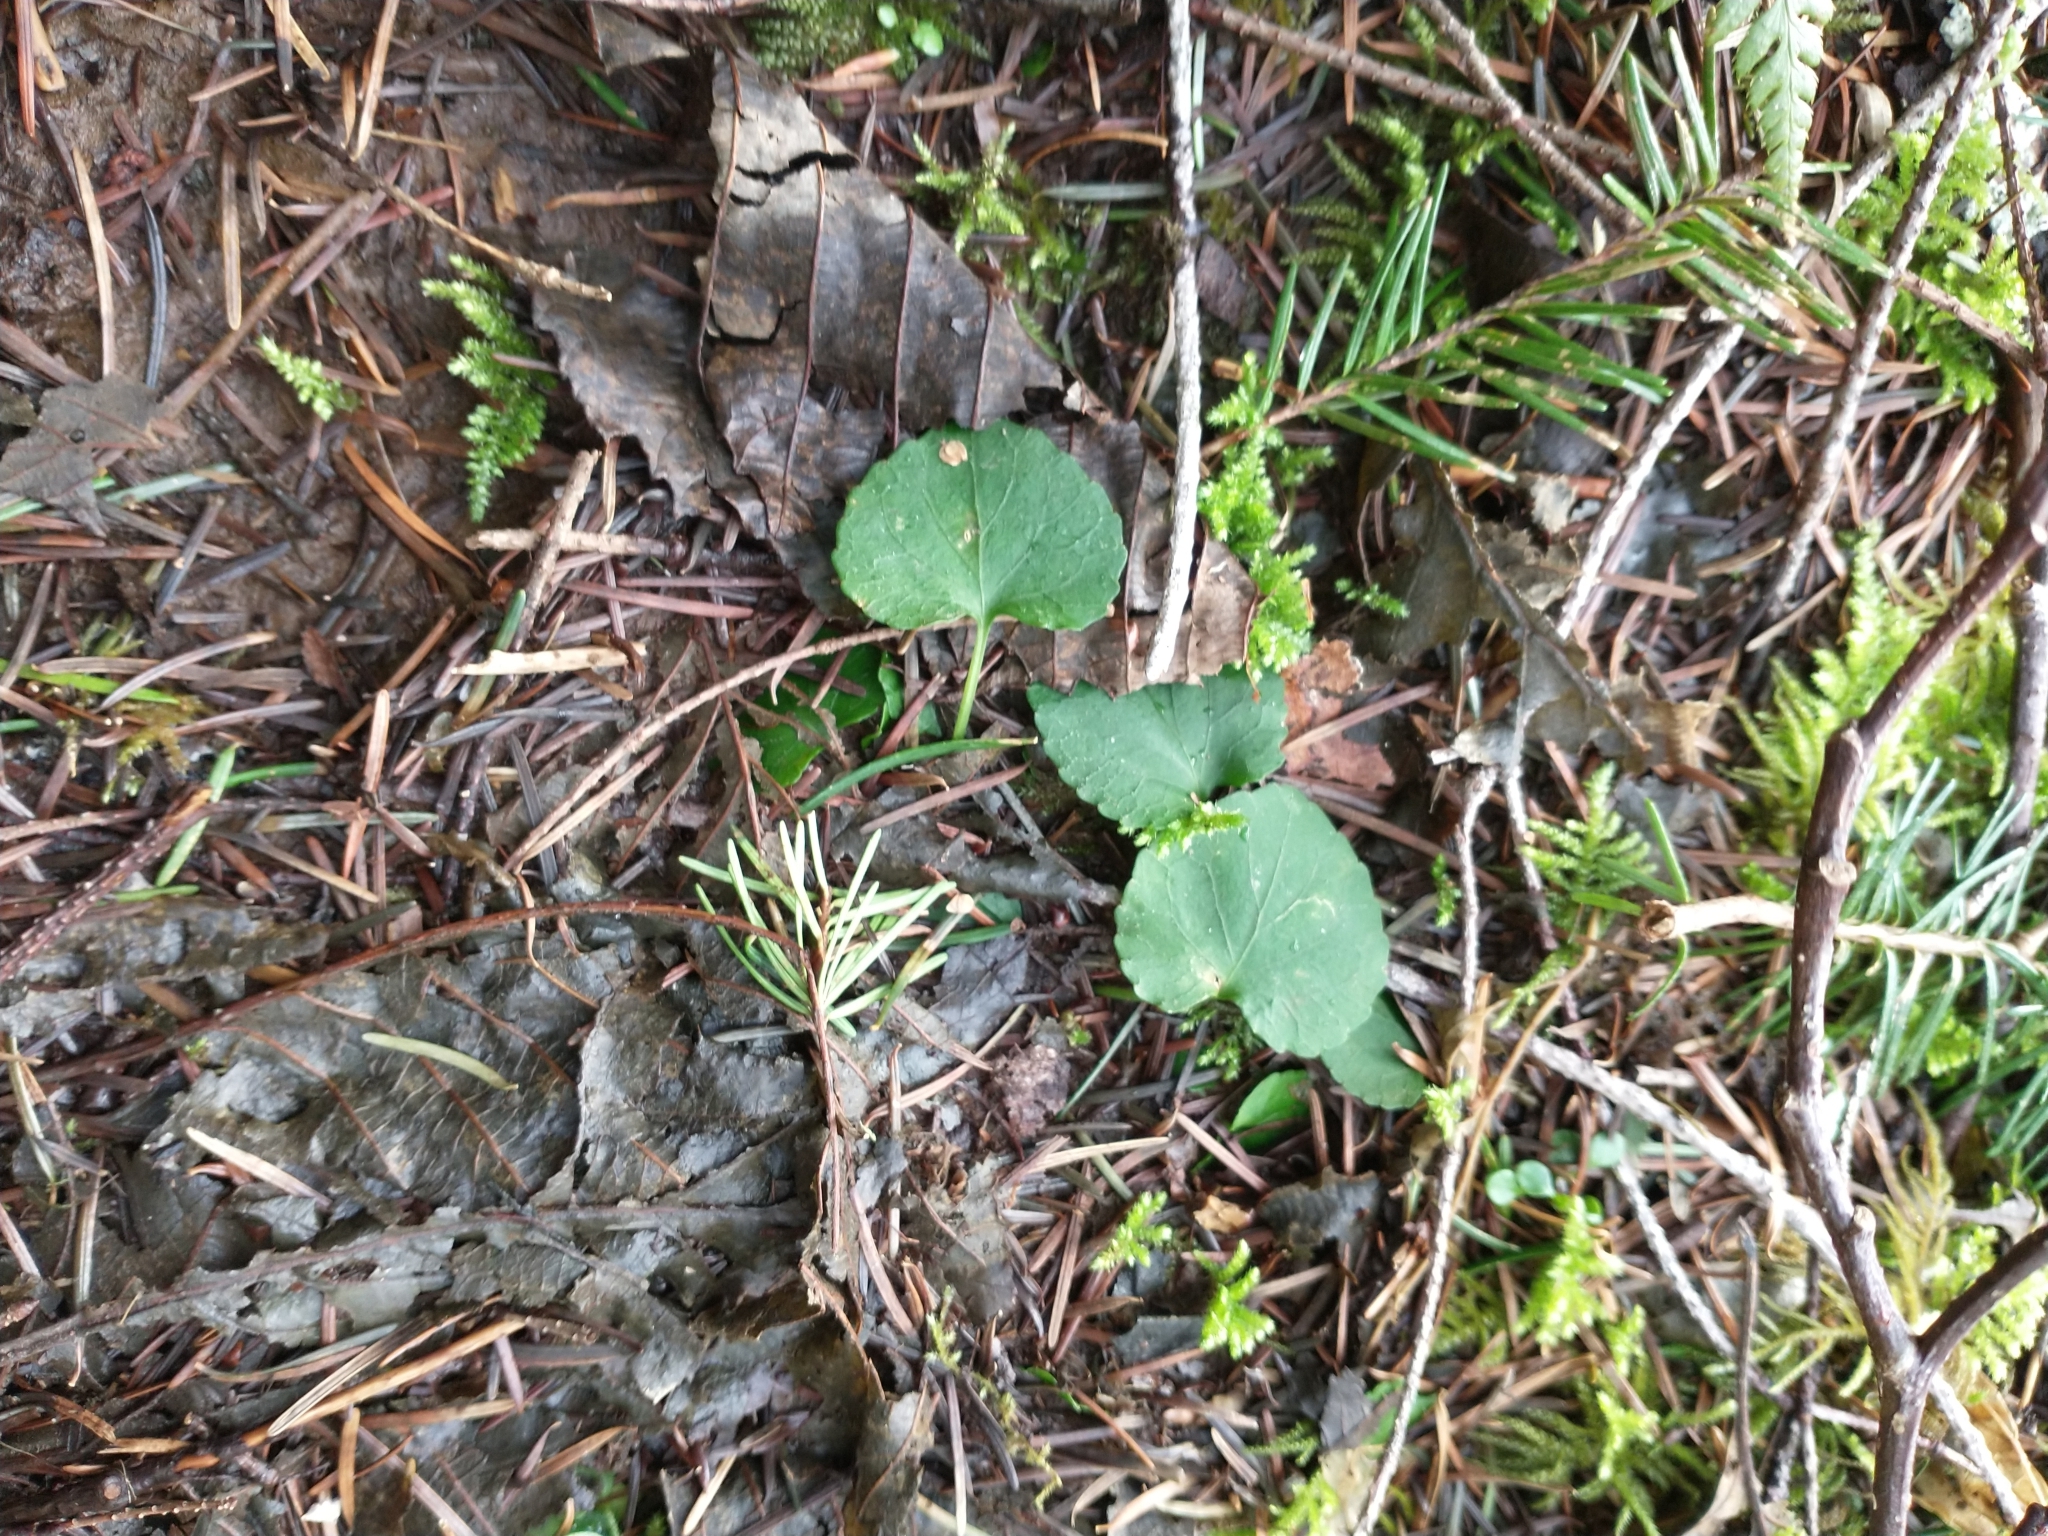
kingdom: Plantae
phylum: Tracheophyta
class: Magnoliopsida
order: Malpighiales
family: Violaceae
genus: Viola
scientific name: Viola sempervirens
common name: Evergreen violet
